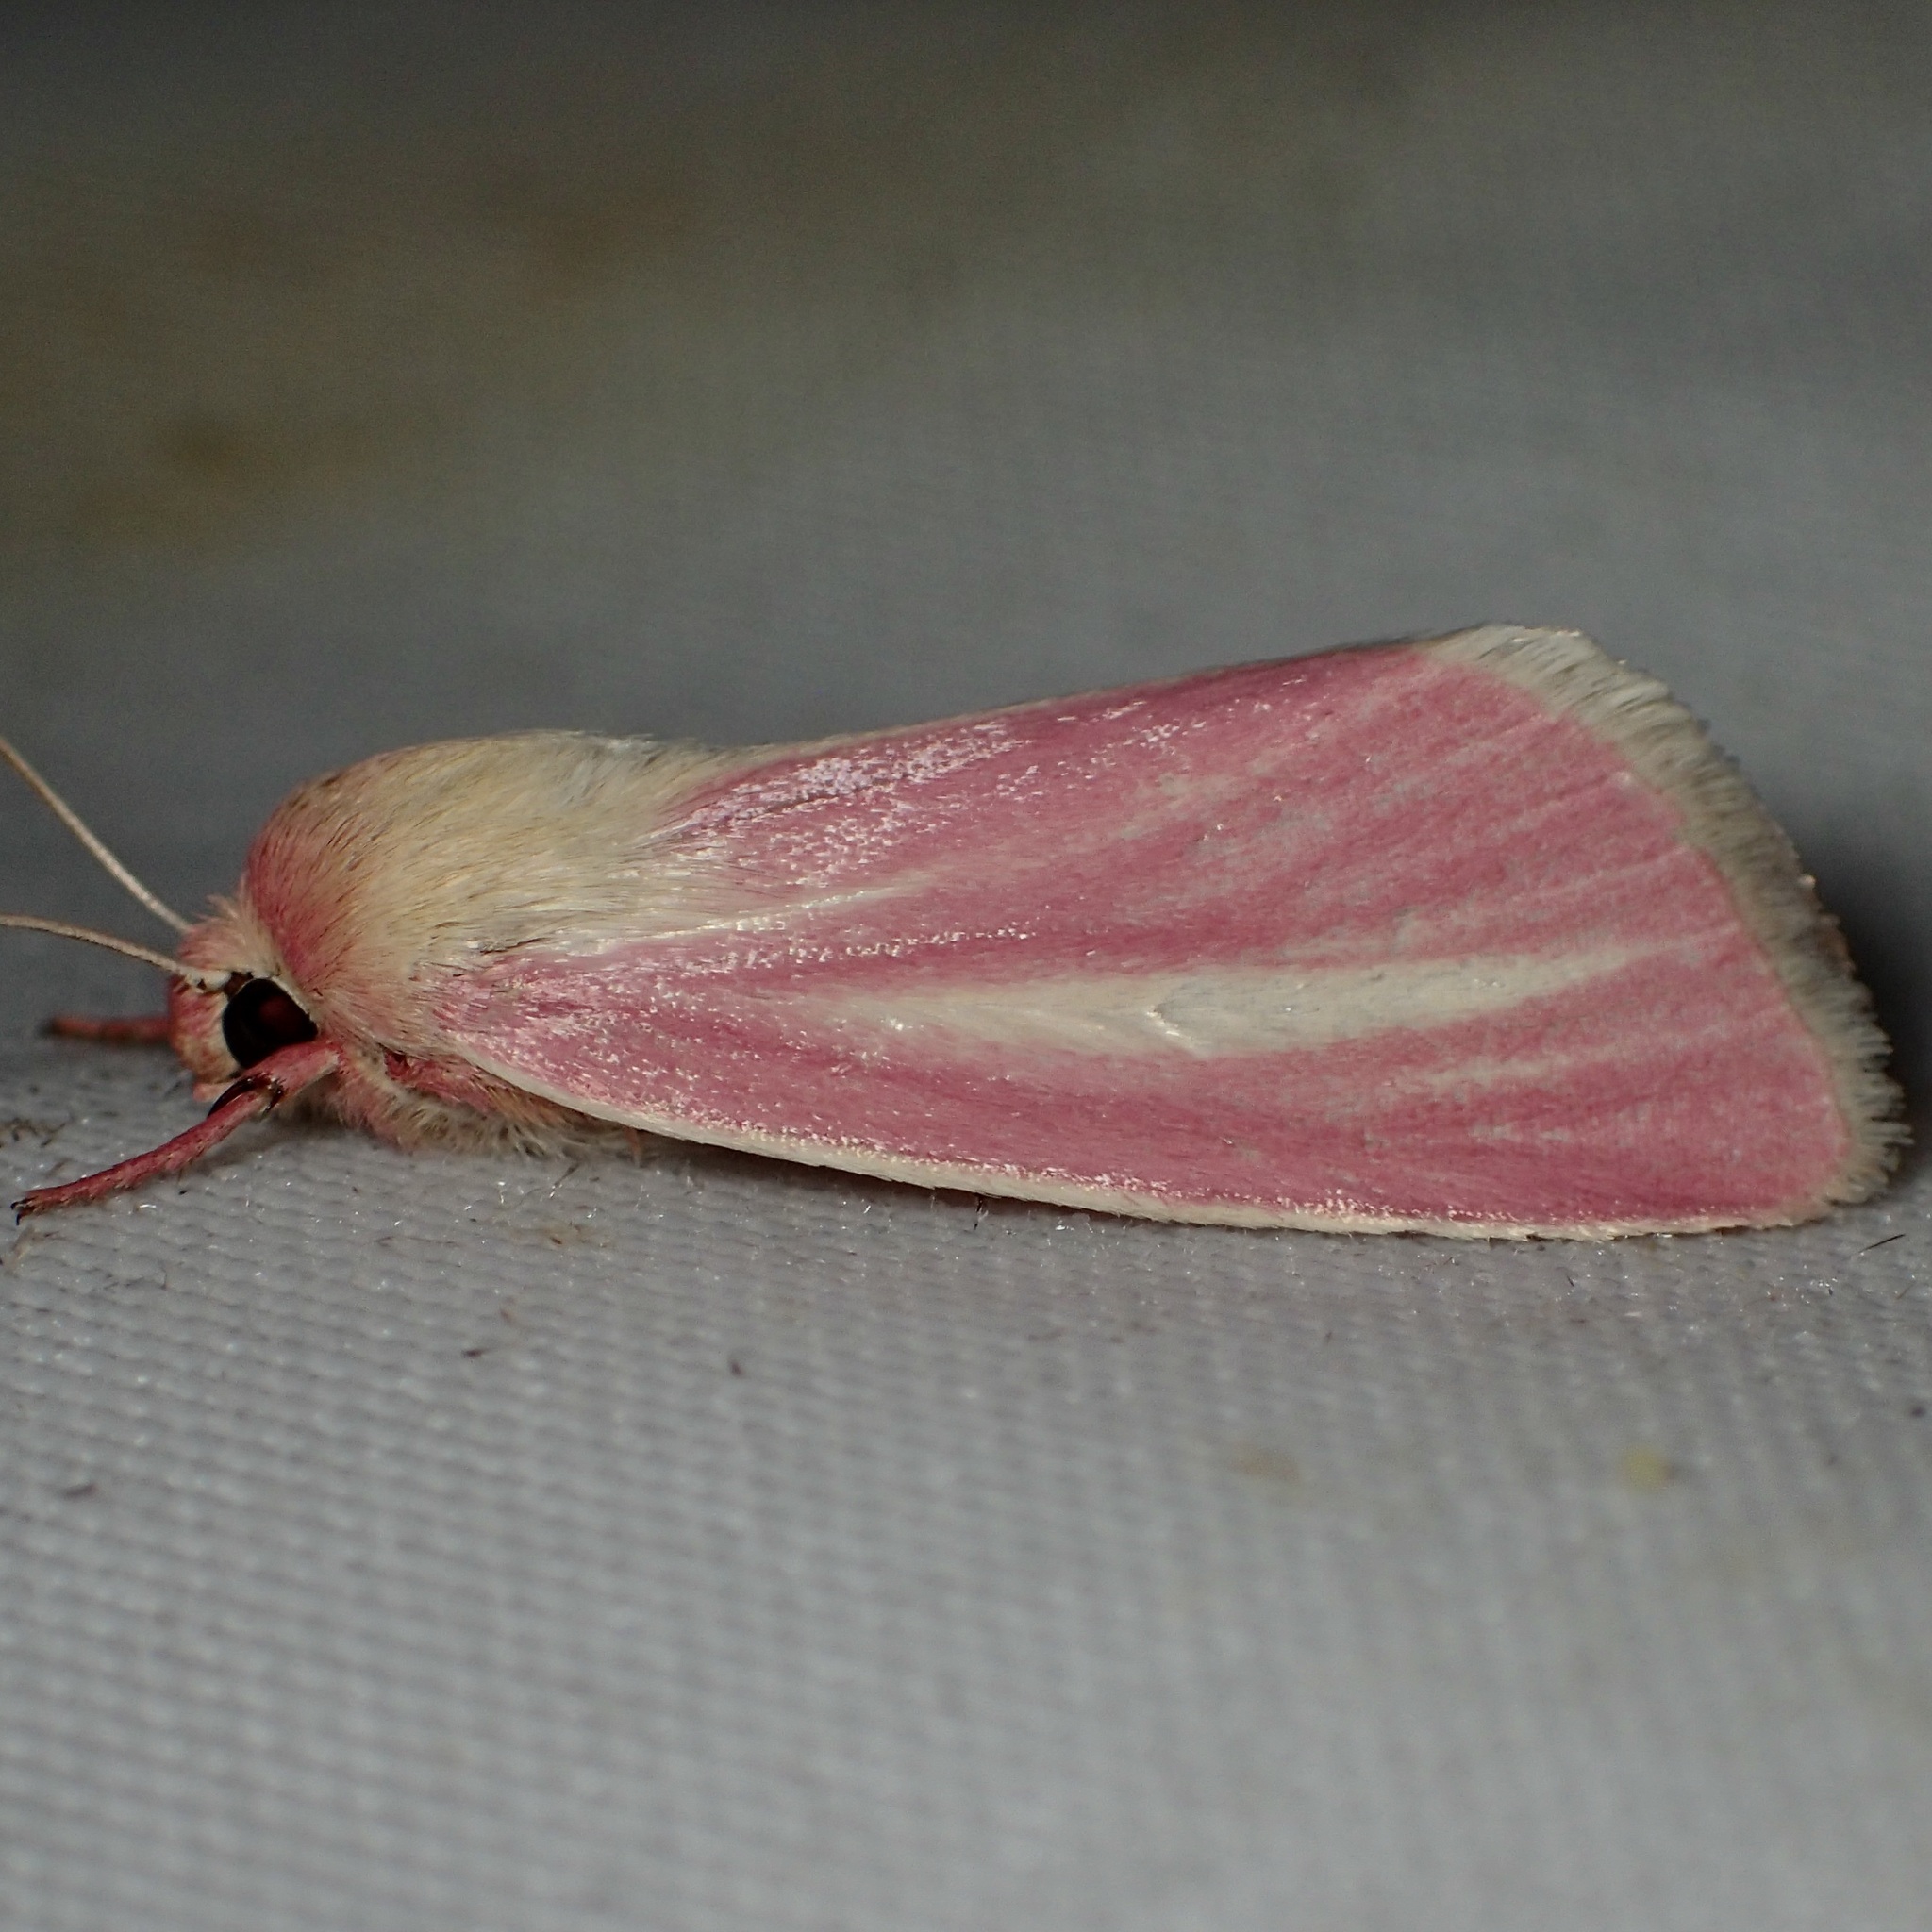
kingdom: Animalia
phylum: Arthropoda
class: Insecta
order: Lepidoptera
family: Noctuidae
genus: Heliocheilus
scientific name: Heliocheilus julia
